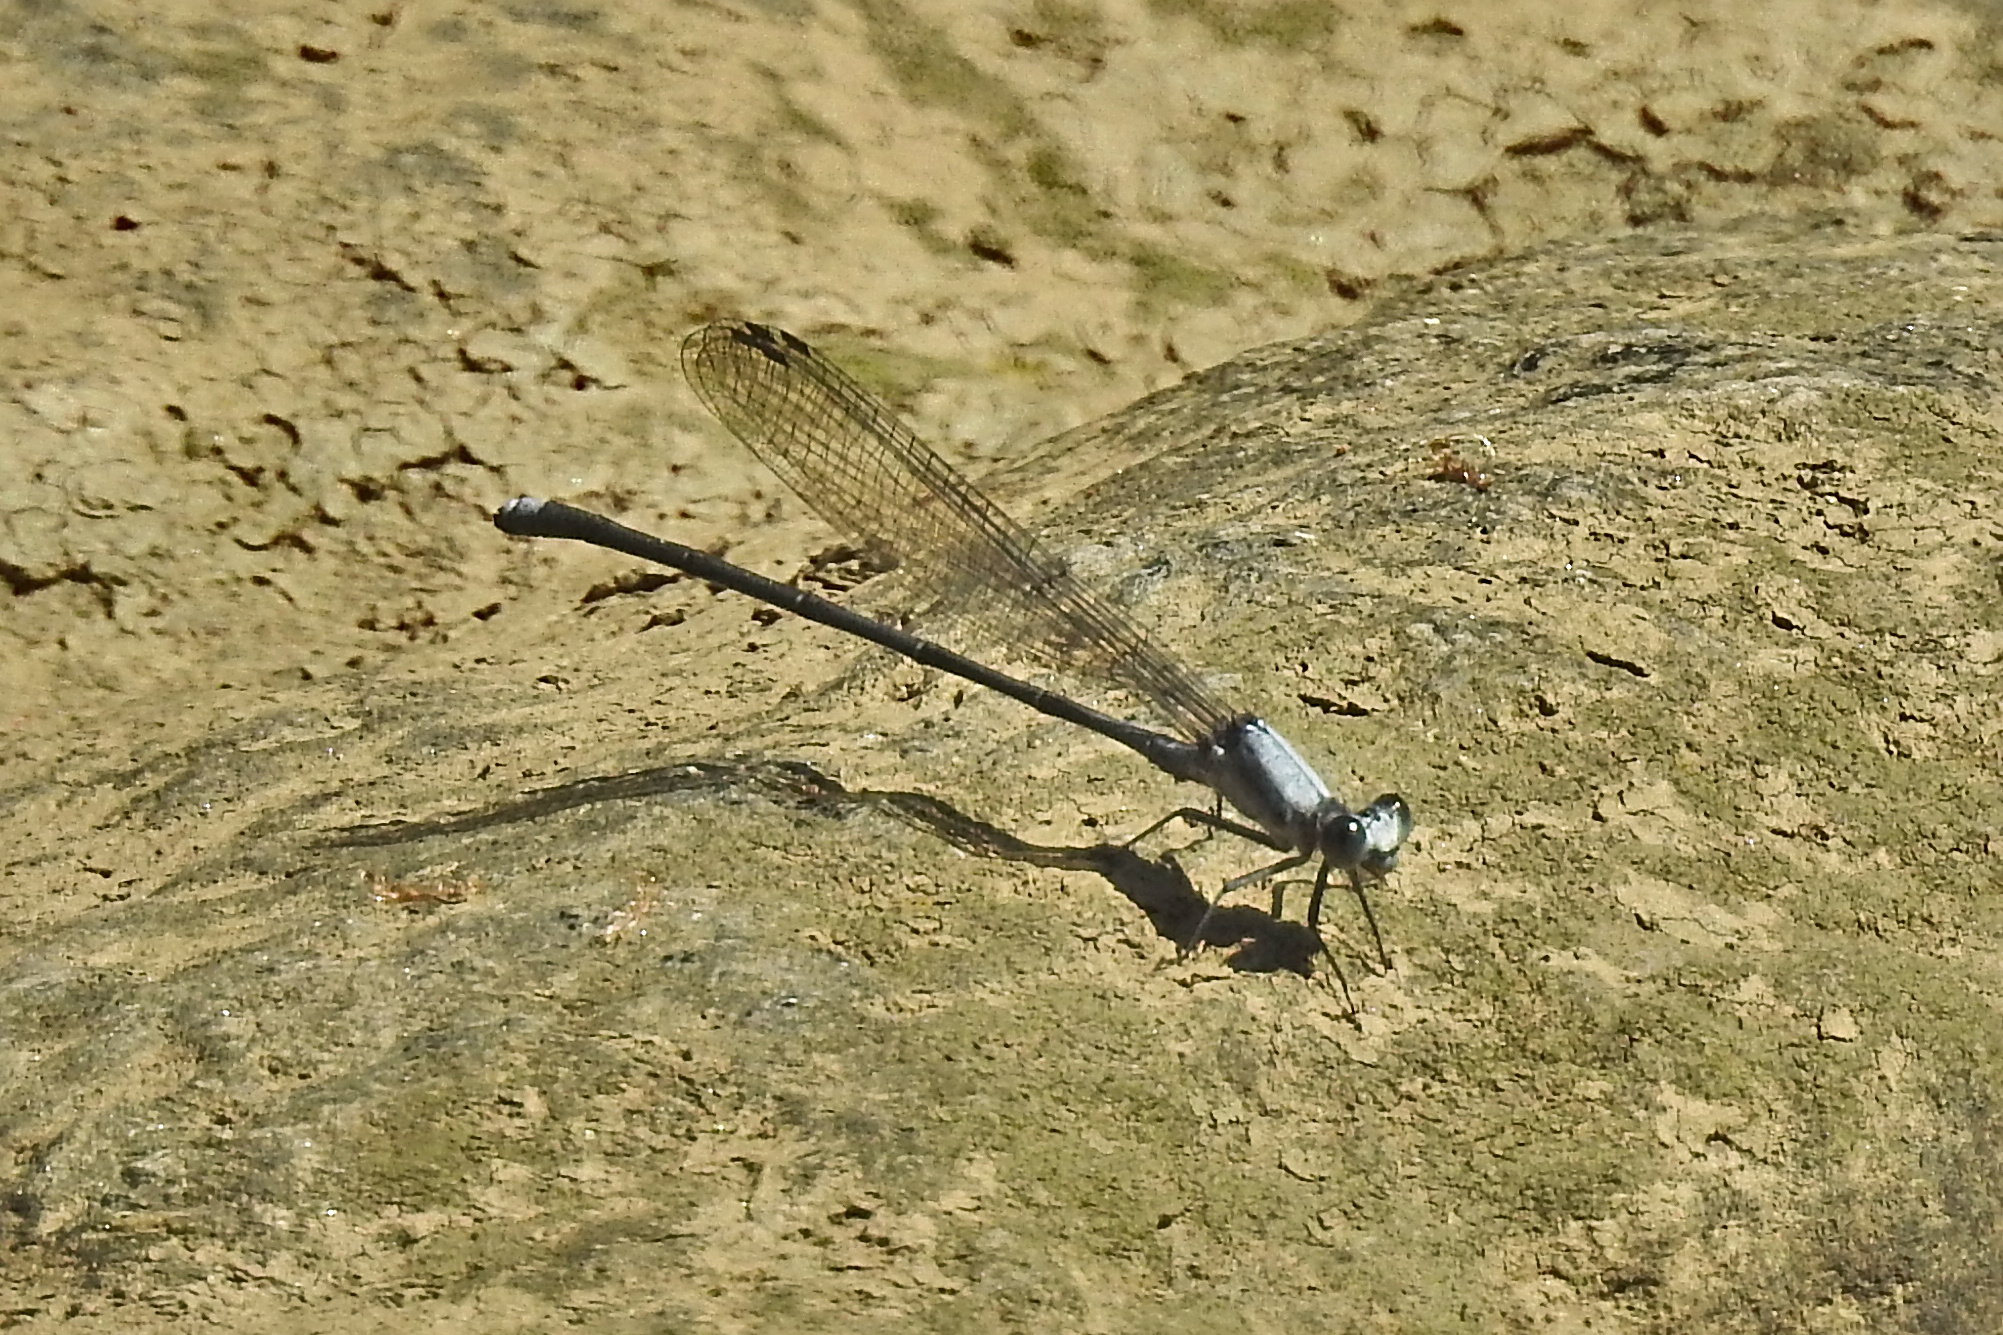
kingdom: Animalia
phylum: Arthropoda
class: Insecta
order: Odonata
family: Coenagrionidae
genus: Argia
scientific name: Argia moesta
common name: Powdered dancer
